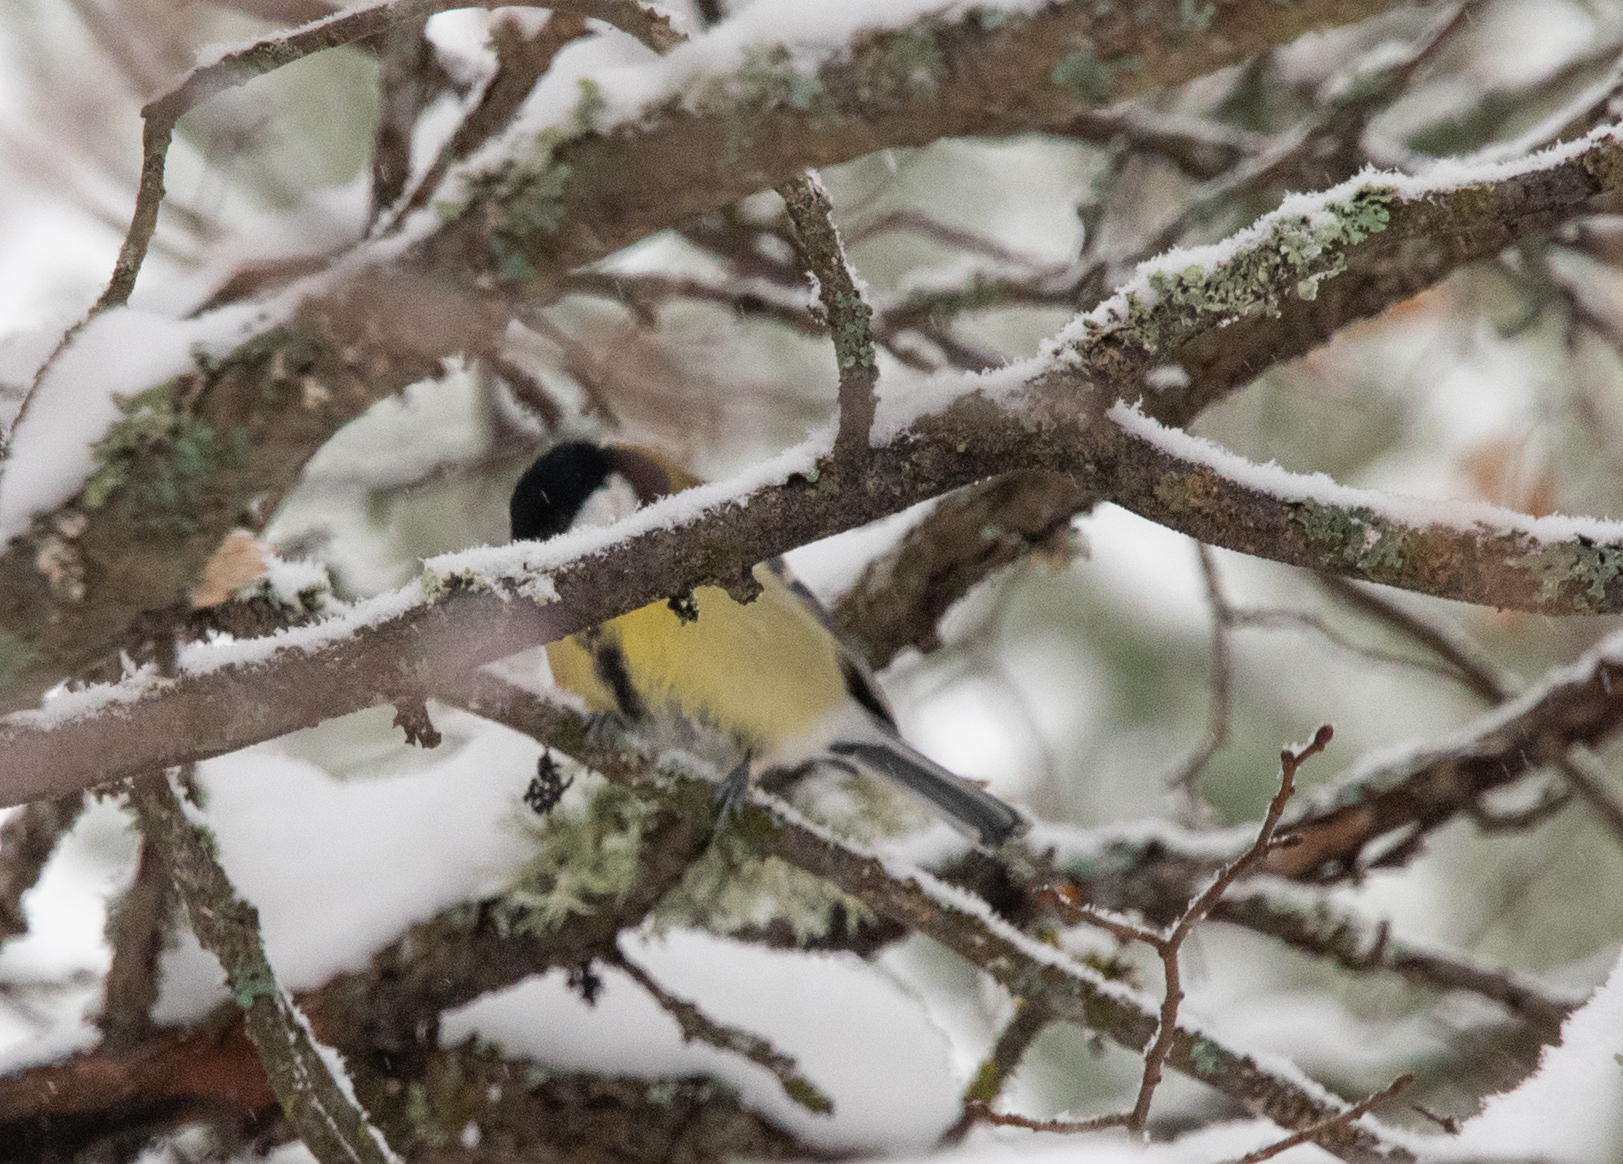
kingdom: Animalia
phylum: Chordata
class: Aves
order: Passeriformes
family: Paridae
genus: Parus
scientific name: Parus major
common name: Great tit
